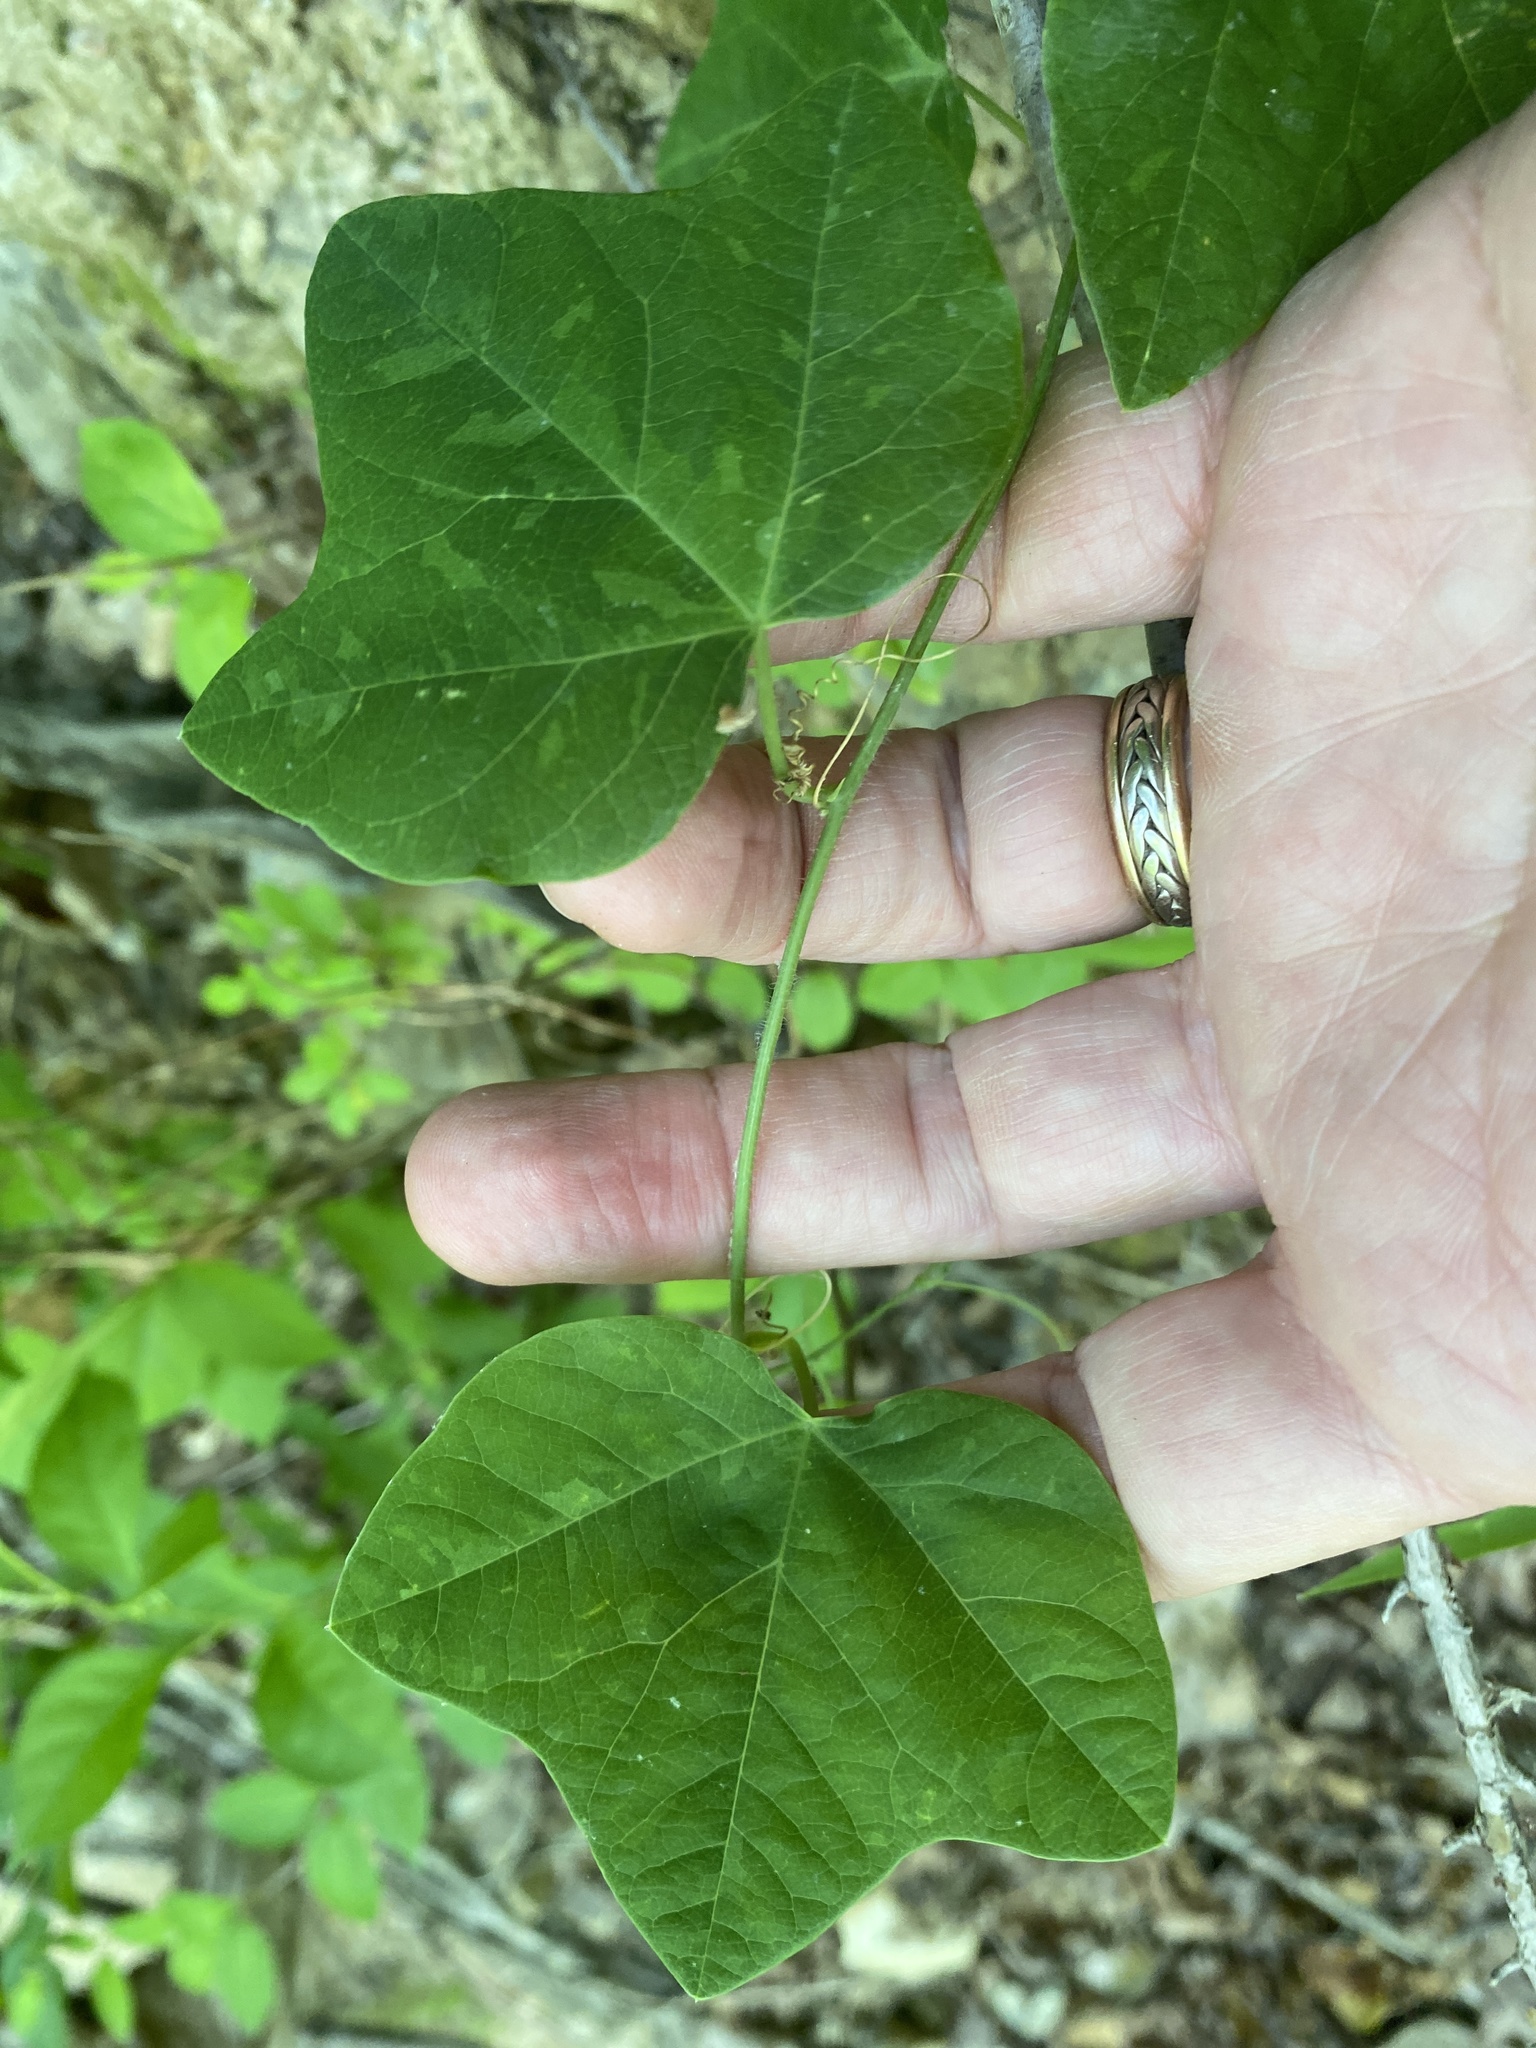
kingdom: Plantae
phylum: Tracheophyta
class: Magnoliopsida
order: Malpighiales
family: Passifloraceae
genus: Passiflora
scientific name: Passiflora lutea
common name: Yellow passionflower
